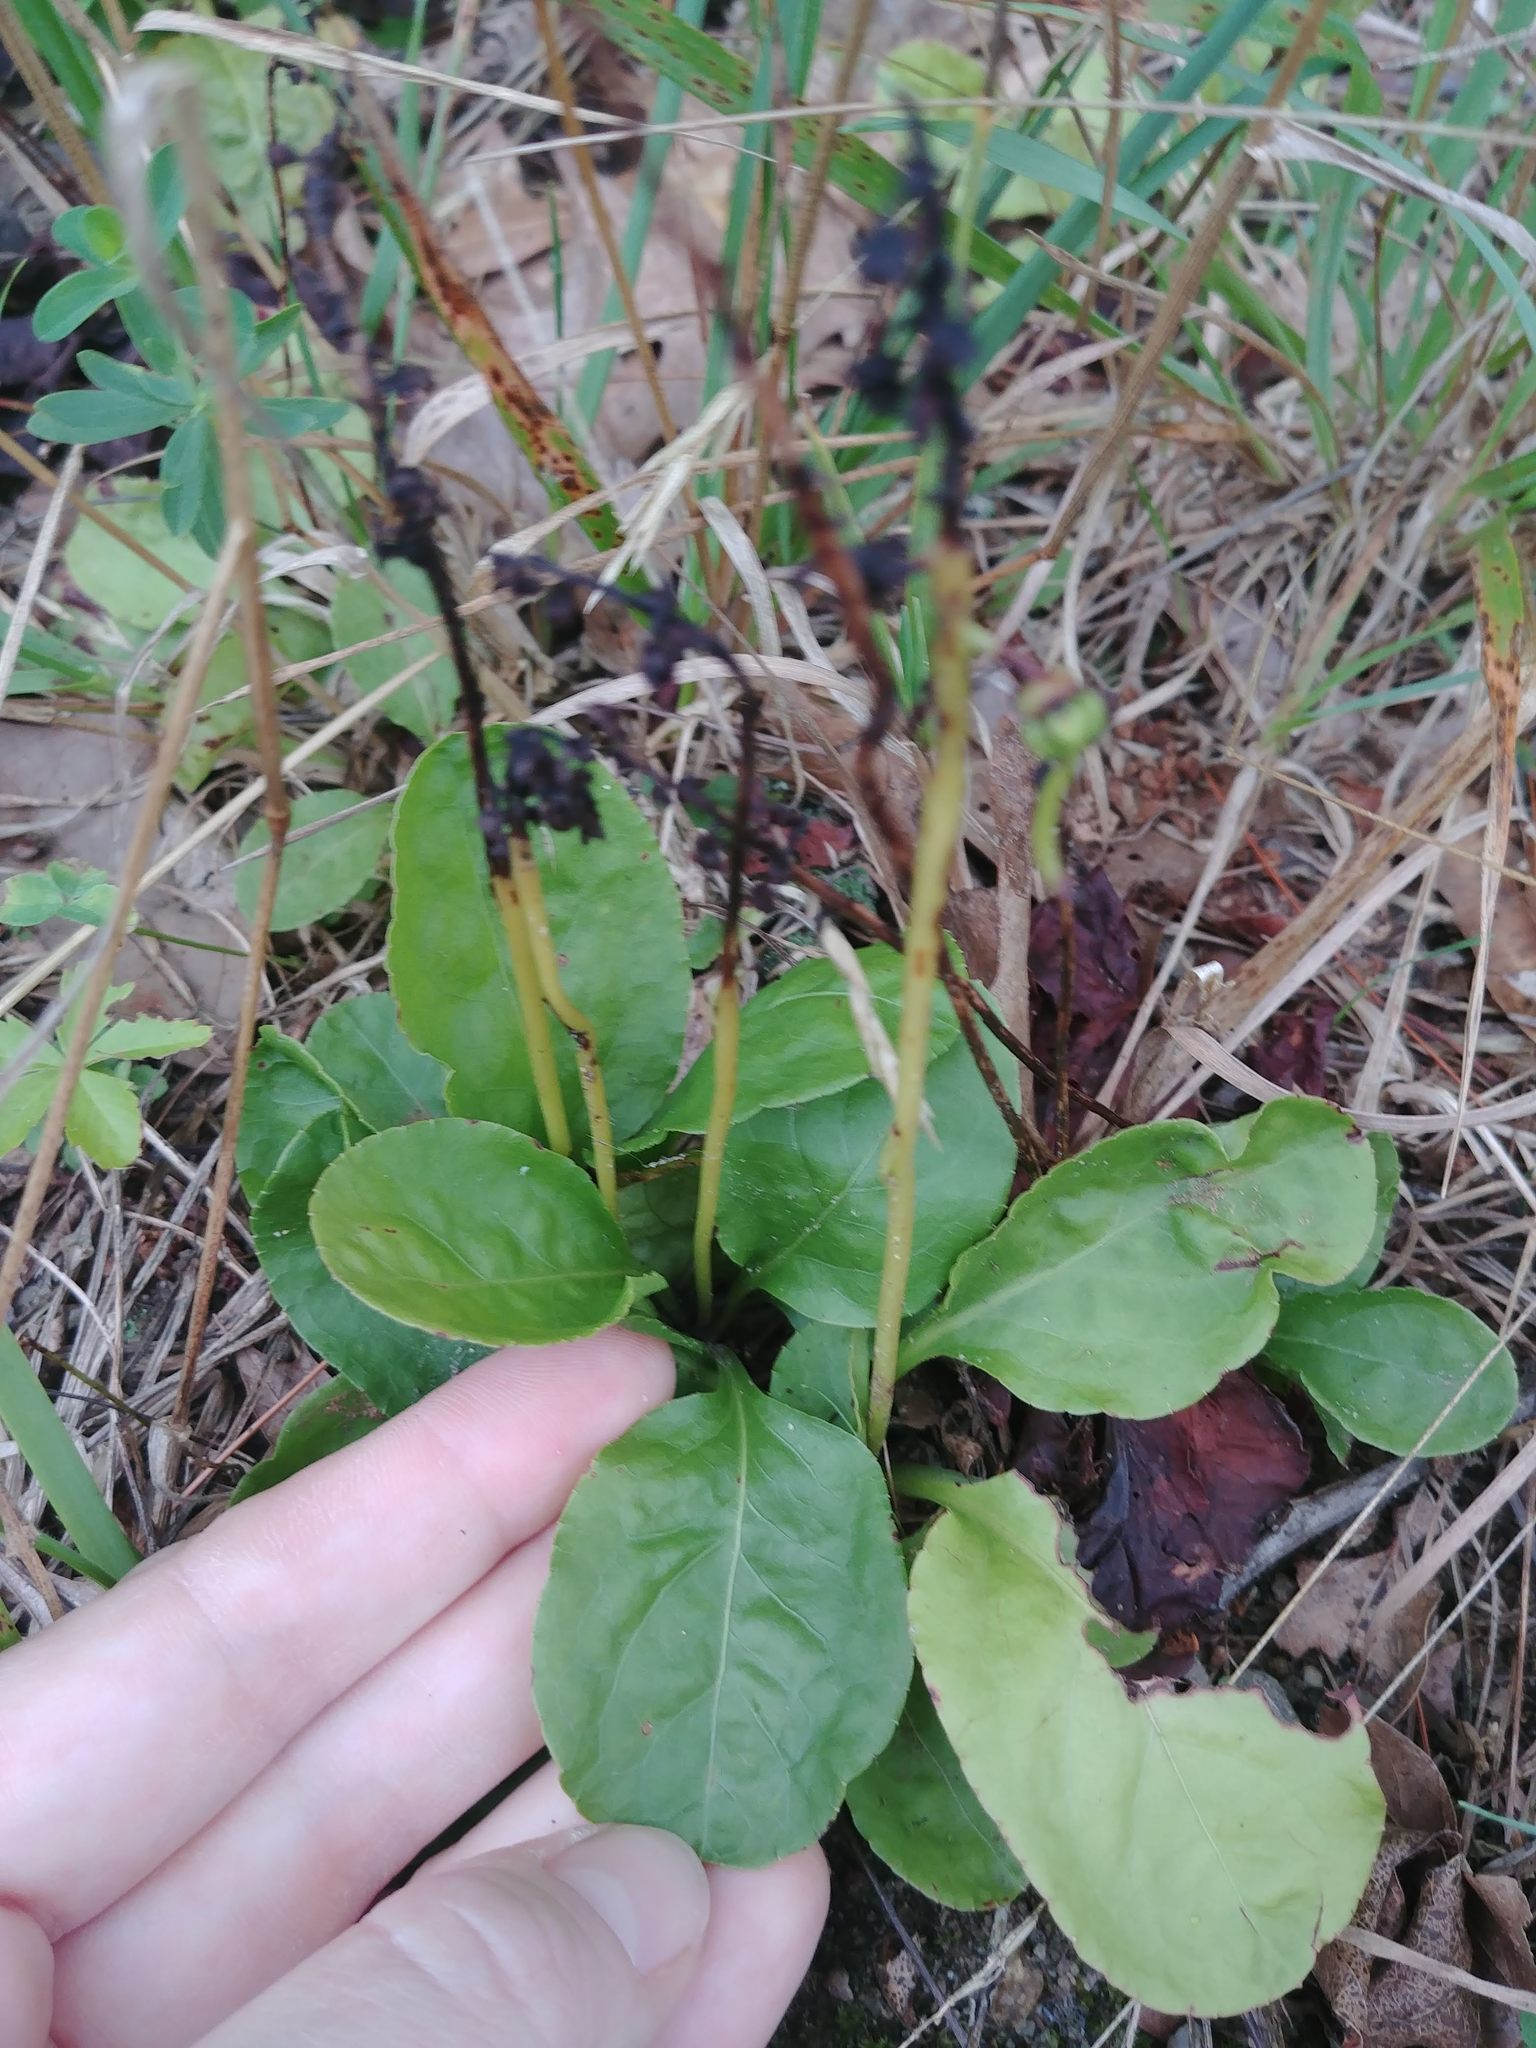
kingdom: Plantae
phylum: Tracheophyta
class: Magnoliopsida
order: Ericales
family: Ericaceae
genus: Pyrola
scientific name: Pyrola elliptica
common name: Shinleaf
